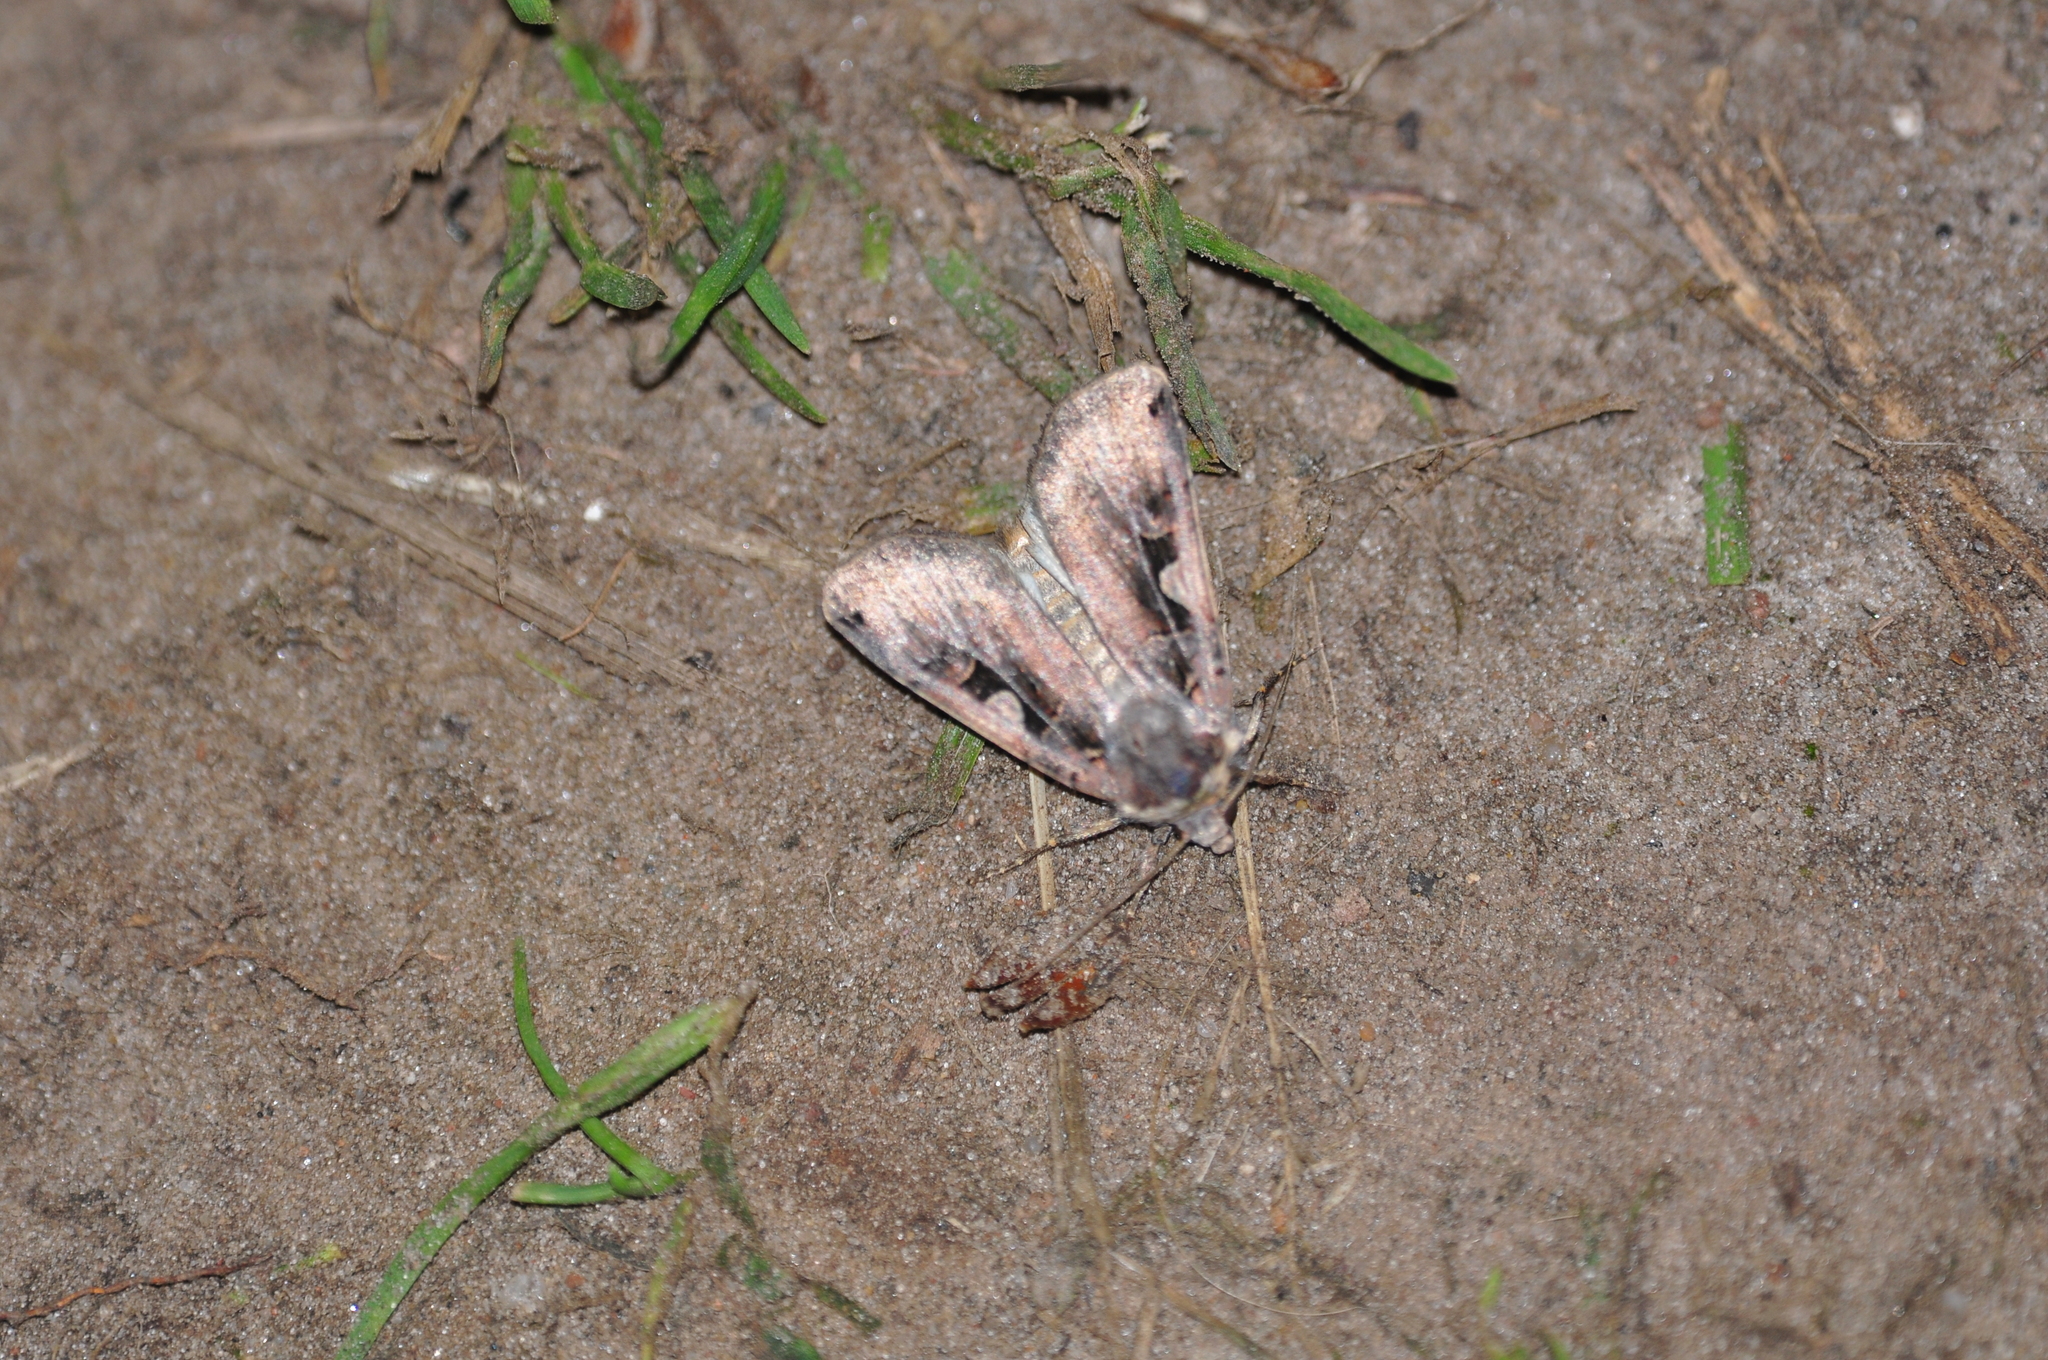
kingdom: Animalia
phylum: Arthropoda
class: Insecta
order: Lepidoptera
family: Noctuidae
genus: Xestia
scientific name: Xestia c-nigrum
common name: Setaceous hebrew character
